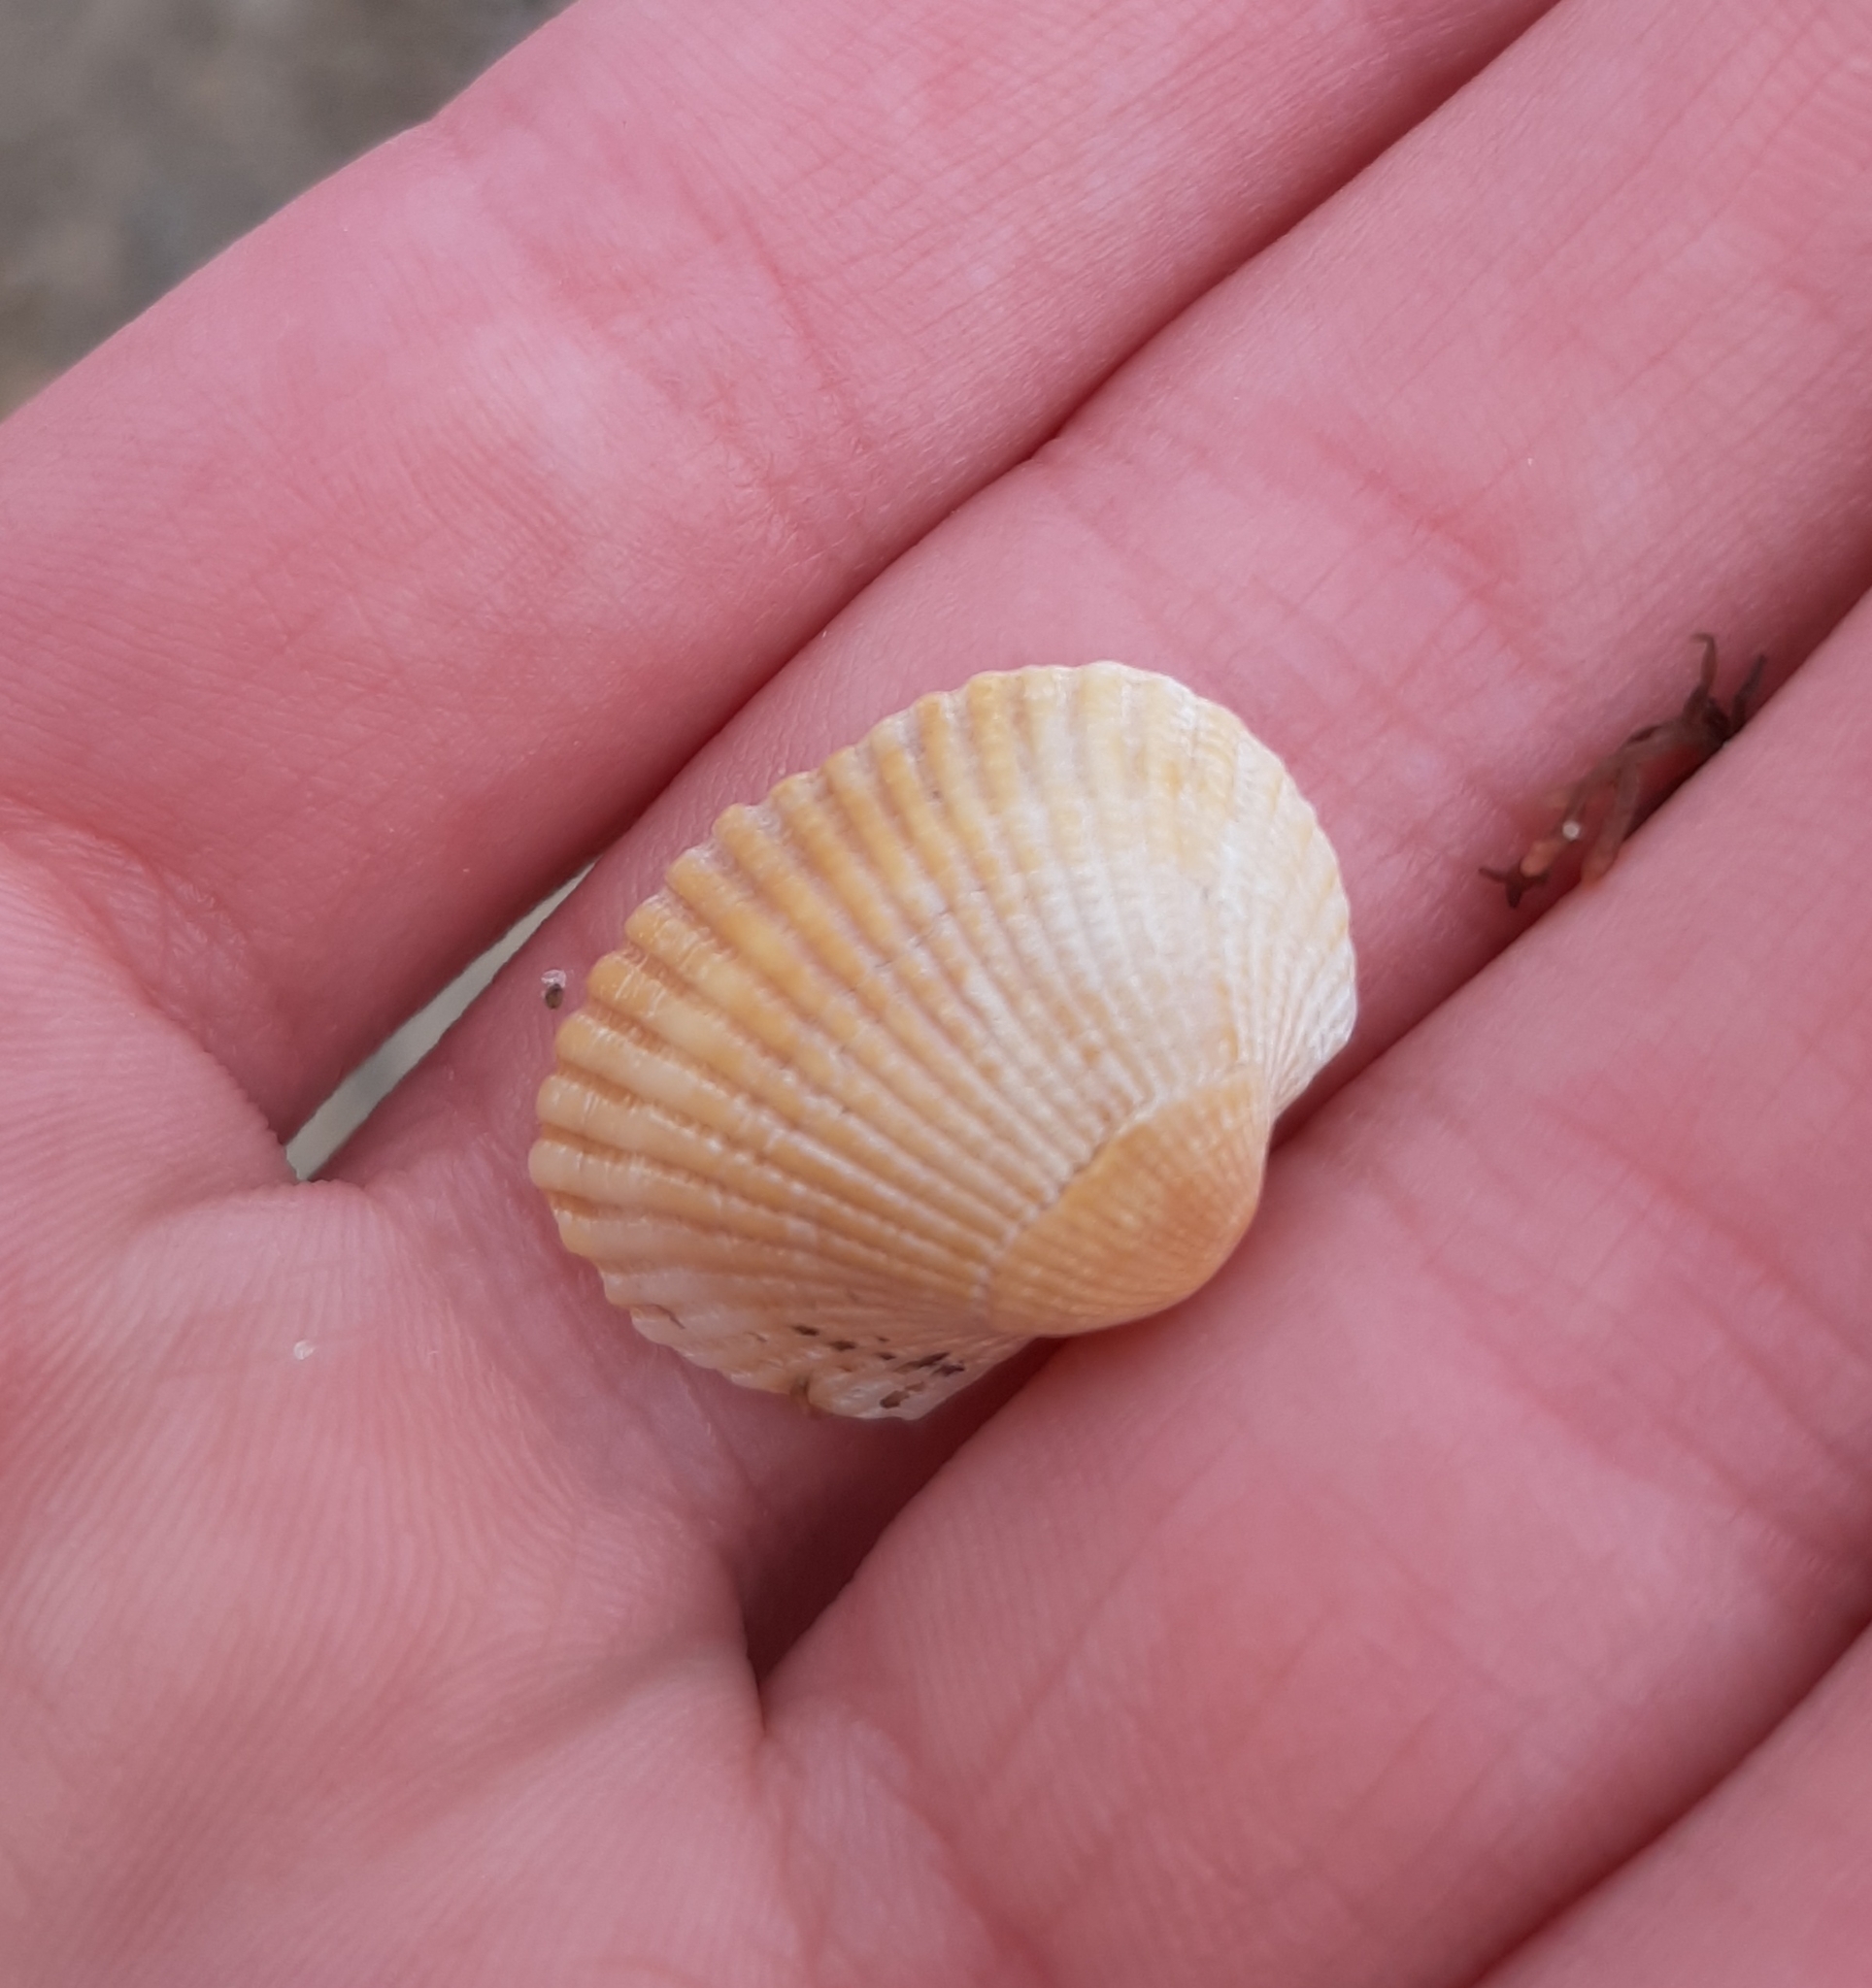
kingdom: Animalia
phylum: Mollusca
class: Bivalvia
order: Arcida
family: Arcidae
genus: Anadara
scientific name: Anadara transversa
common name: Transverse ark
